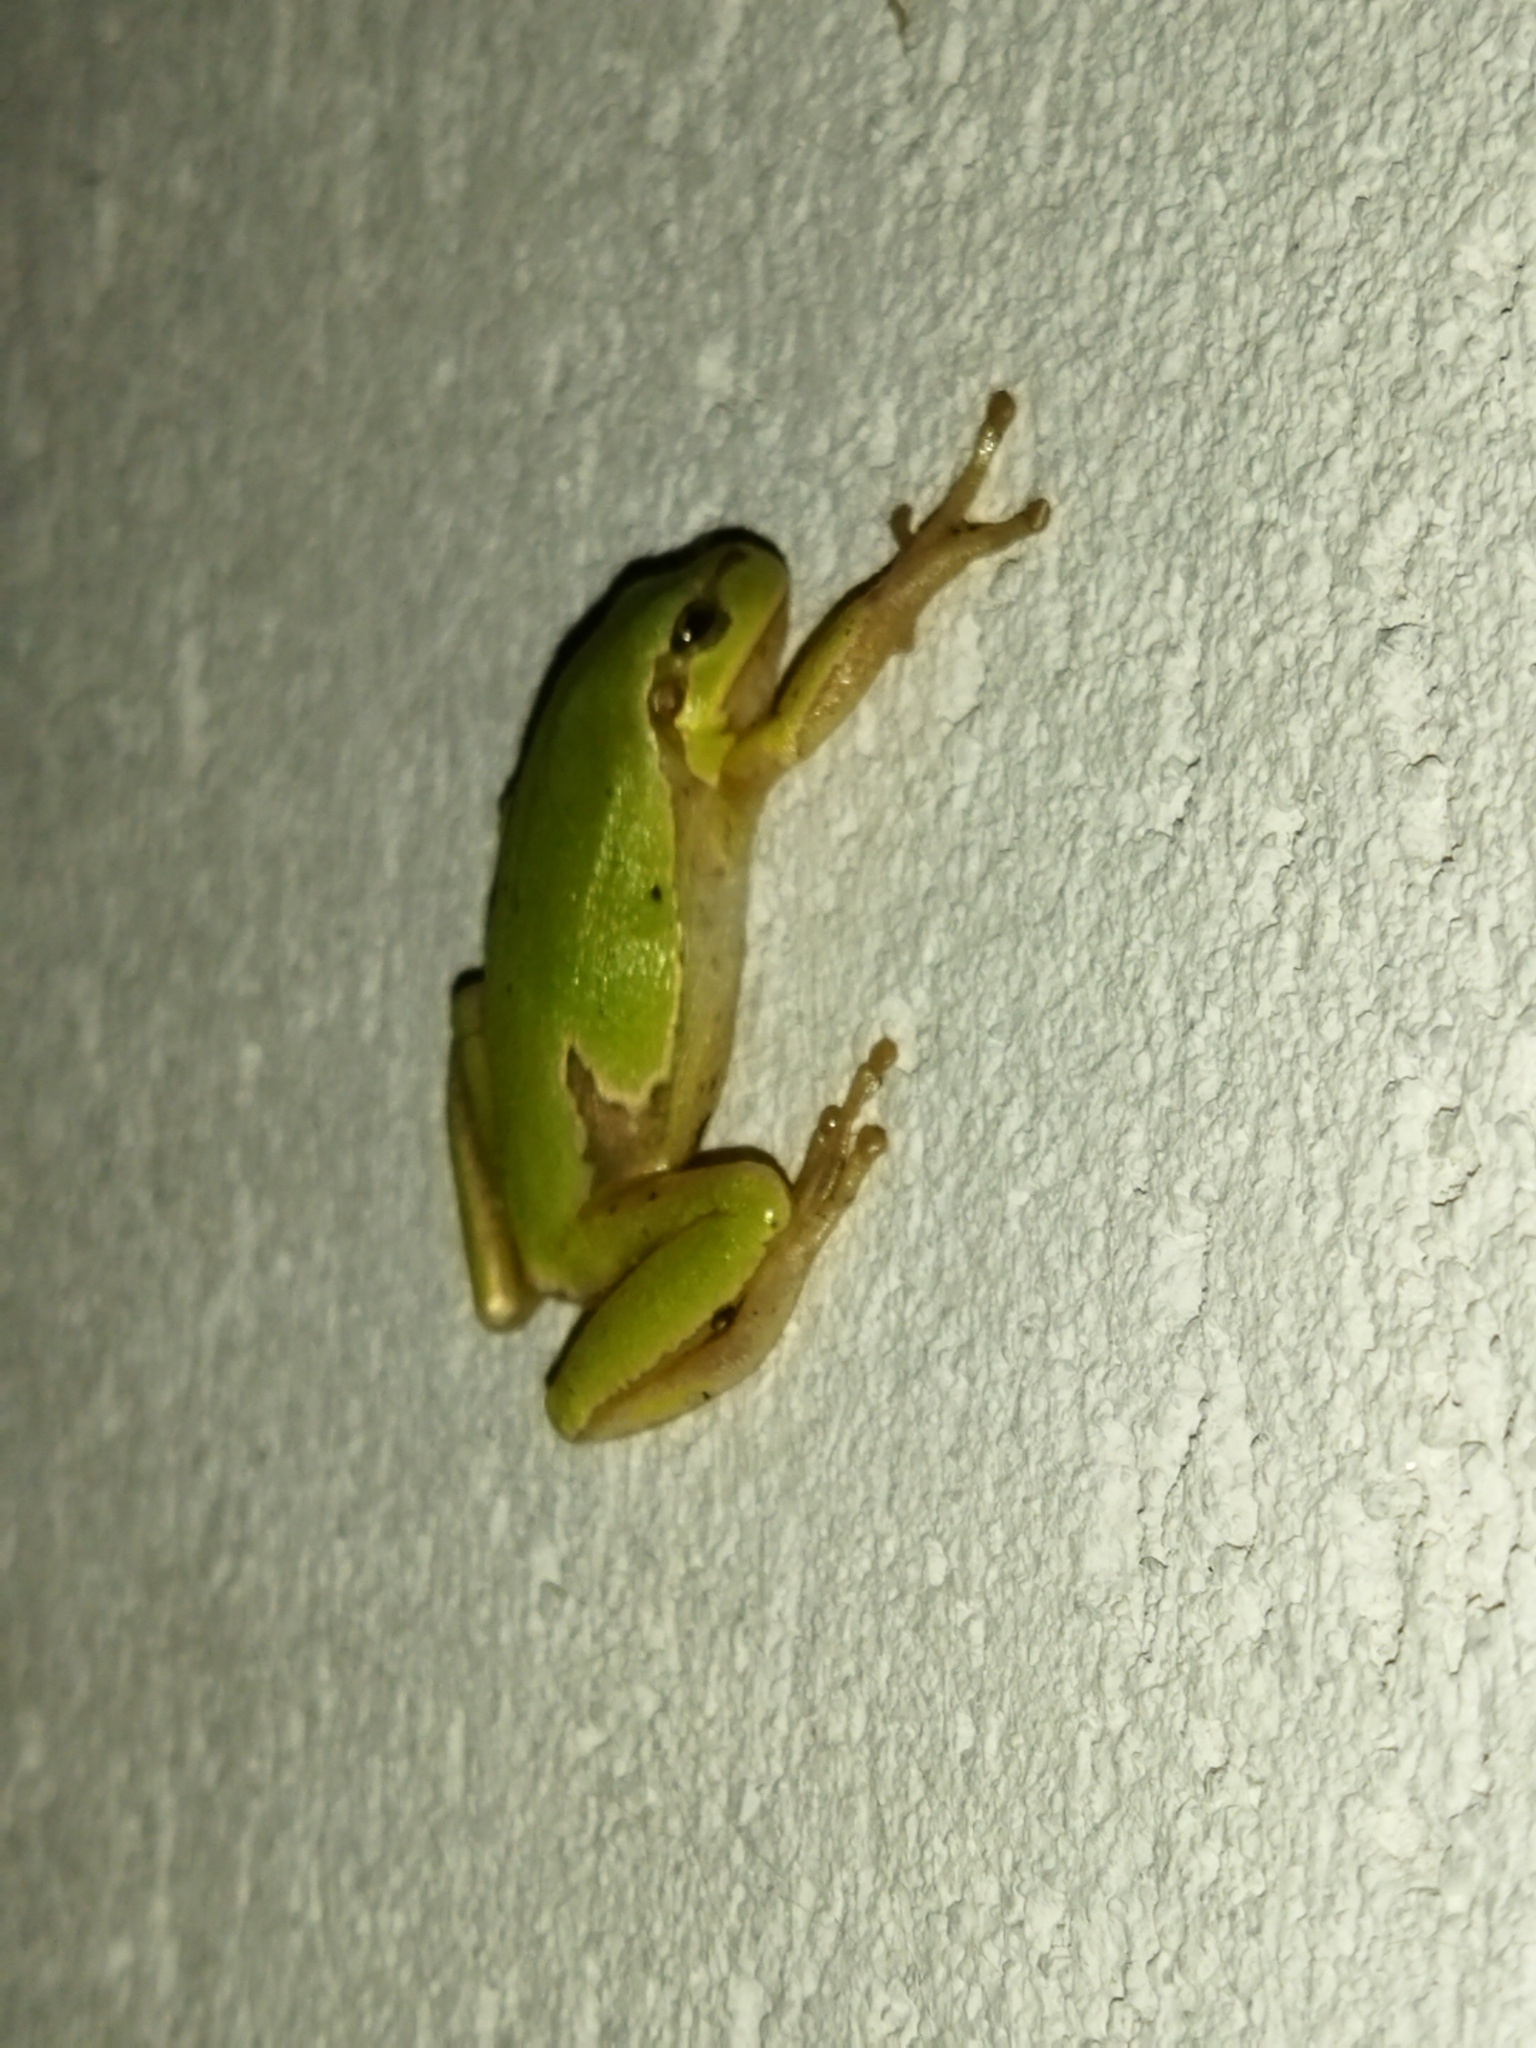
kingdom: Animalia
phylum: Chordata
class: Amphibia
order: Anura
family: Hylidae
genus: Hyla
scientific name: Hyla orientalis
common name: Caucasian treefrog
